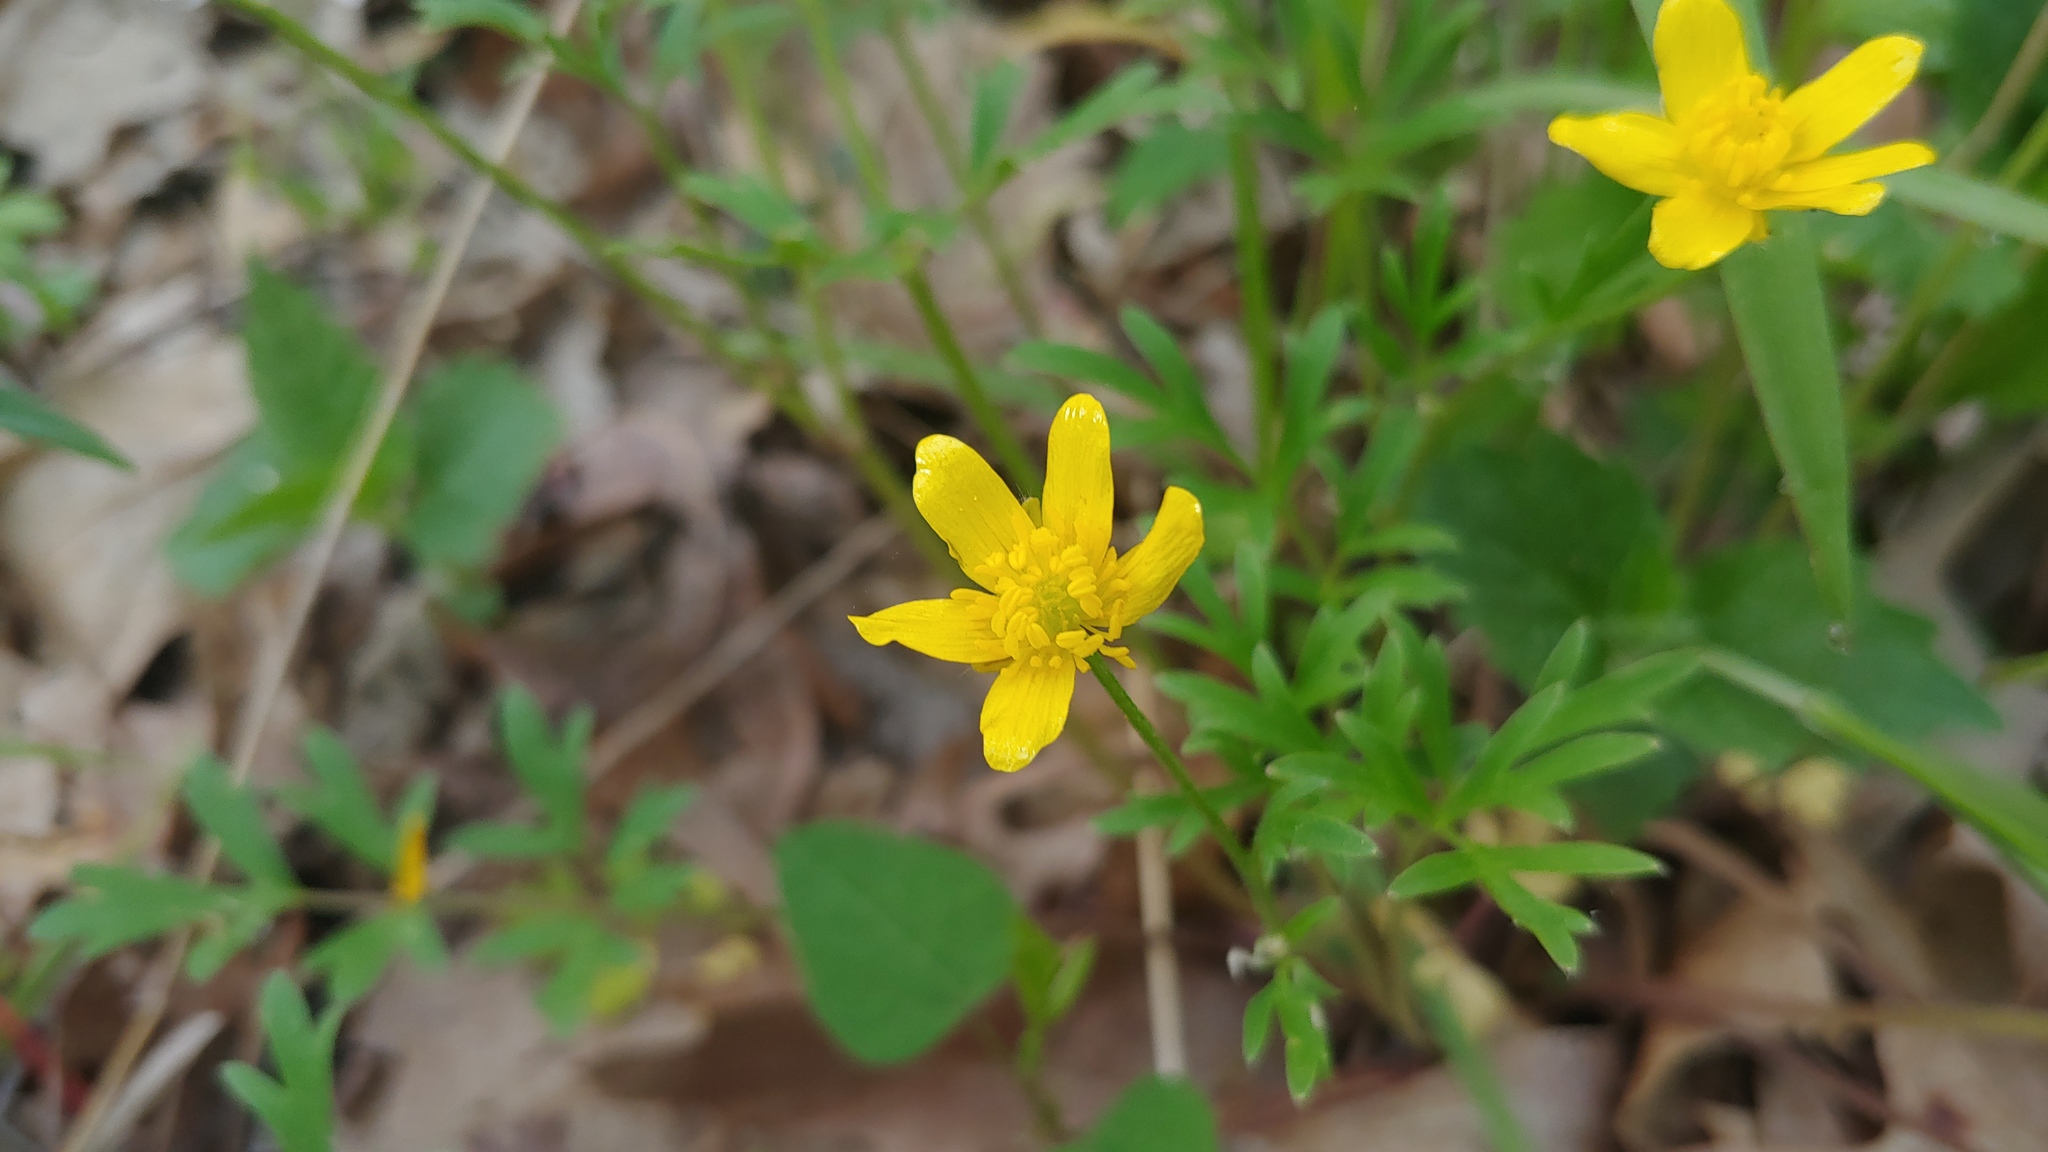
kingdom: Plantae
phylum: Tracheophyta
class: Magnoliopsida
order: Ranunculales
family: Ranunculaceae
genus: Ranunculus
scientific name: Ranunculus fascicularis
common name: Early buttercup
